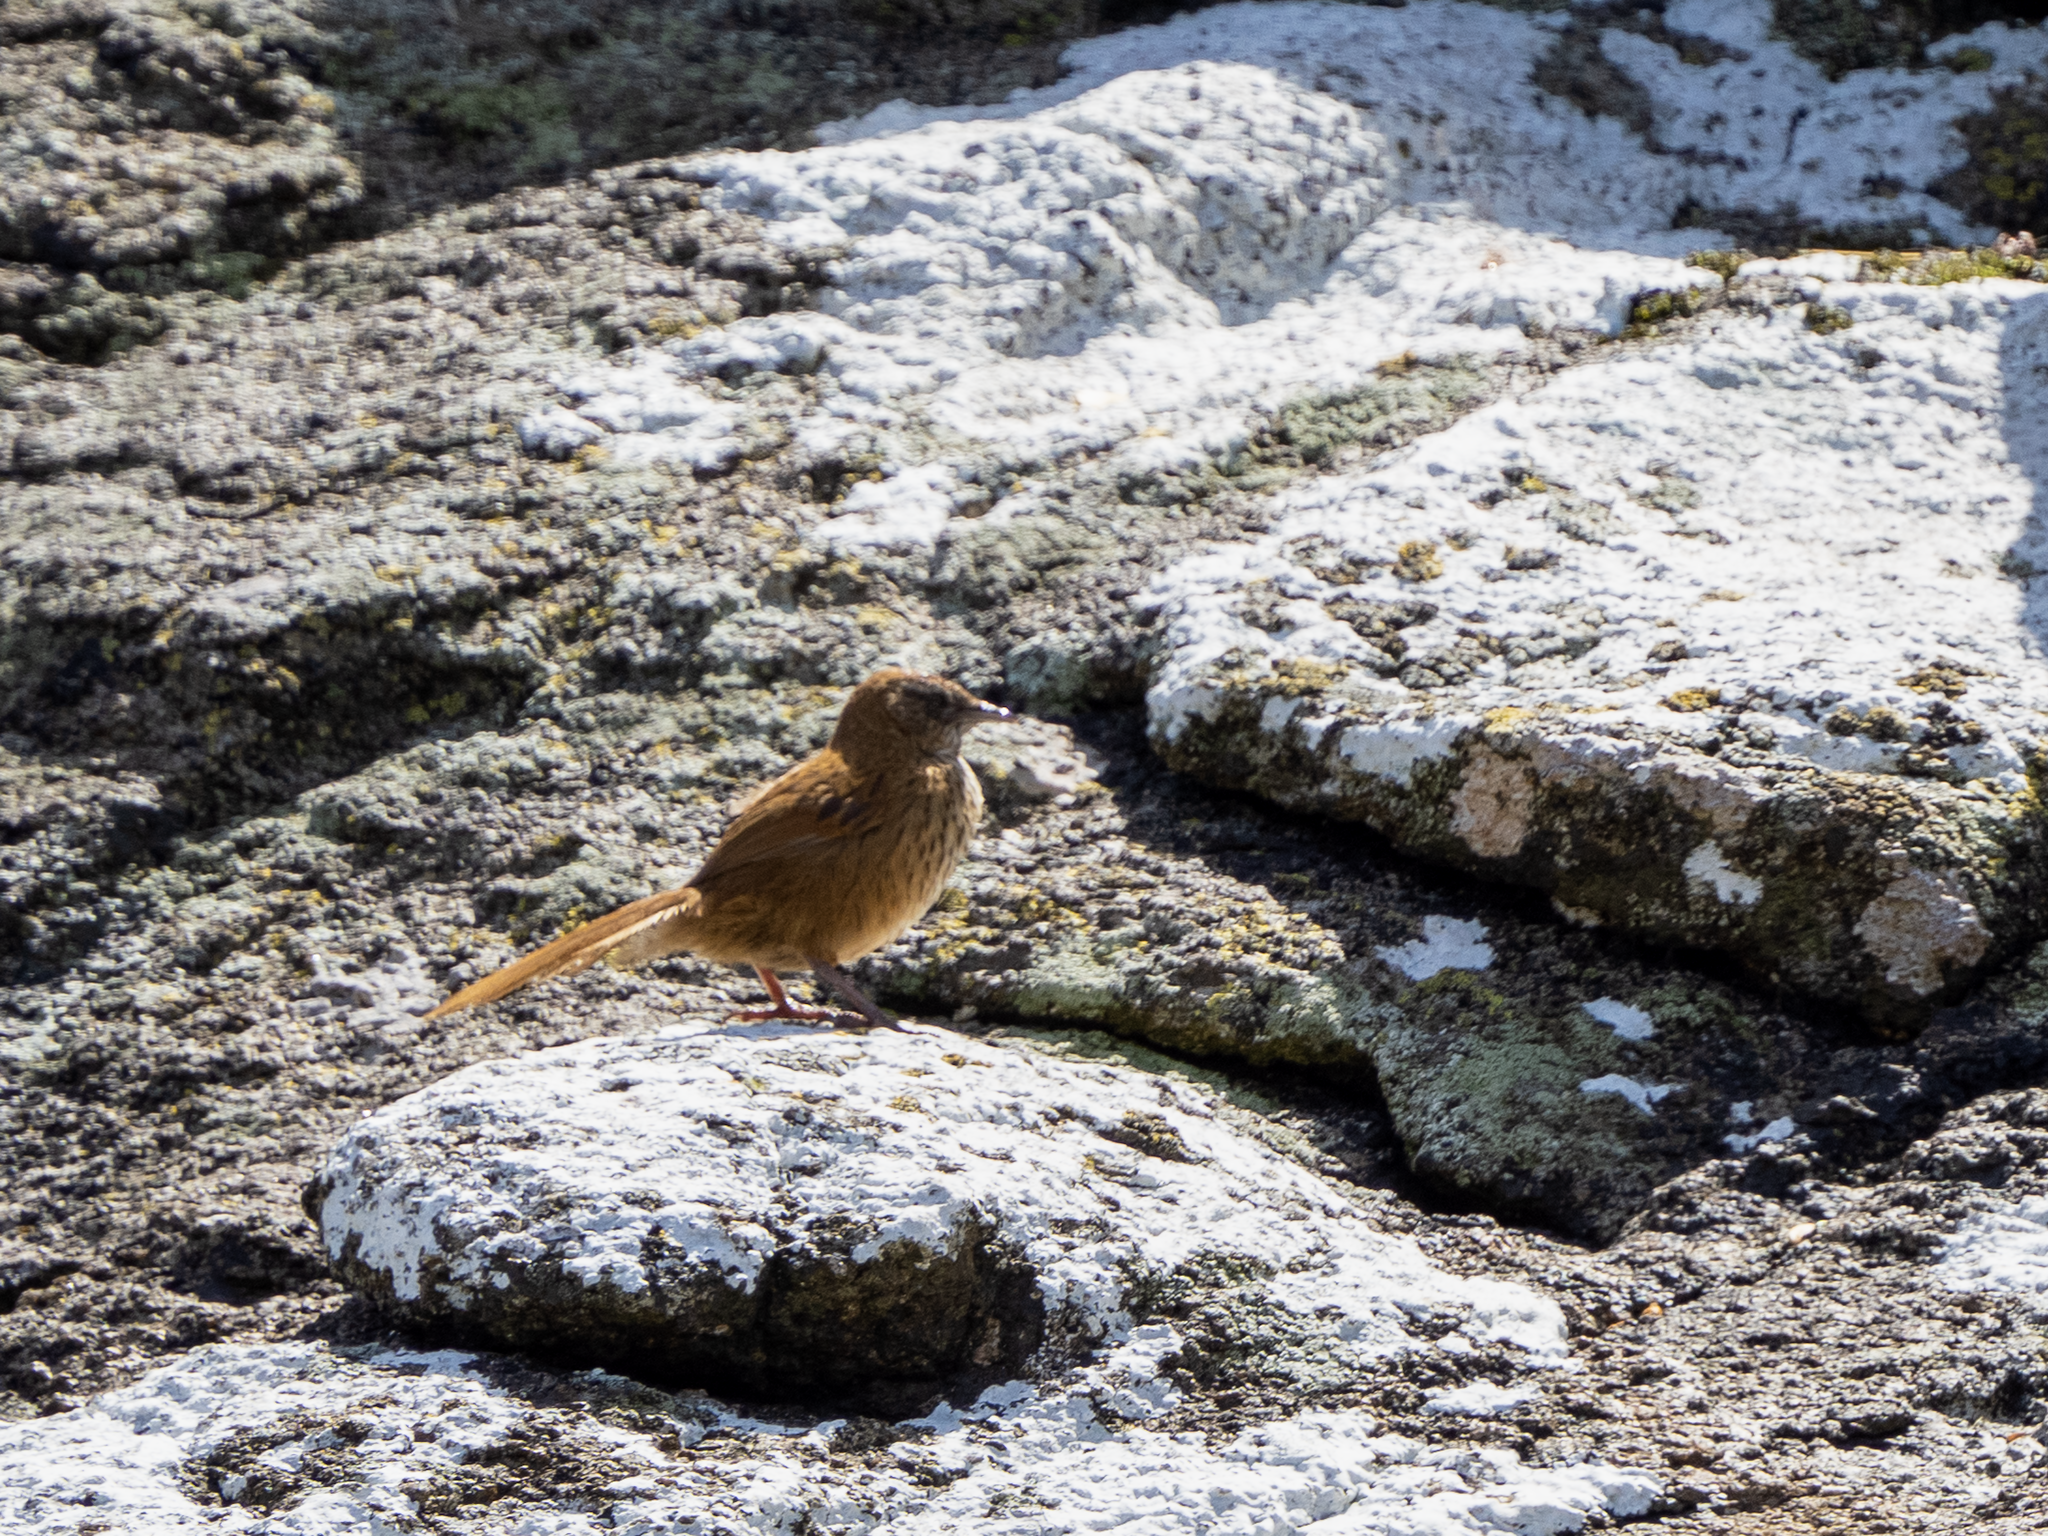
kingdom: Animalia
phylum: Chordata
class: Aves
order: Passeriformes
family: Locustellidae
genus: Megalurus
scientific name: Megalurus punctatus
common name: New zealand fernbird
